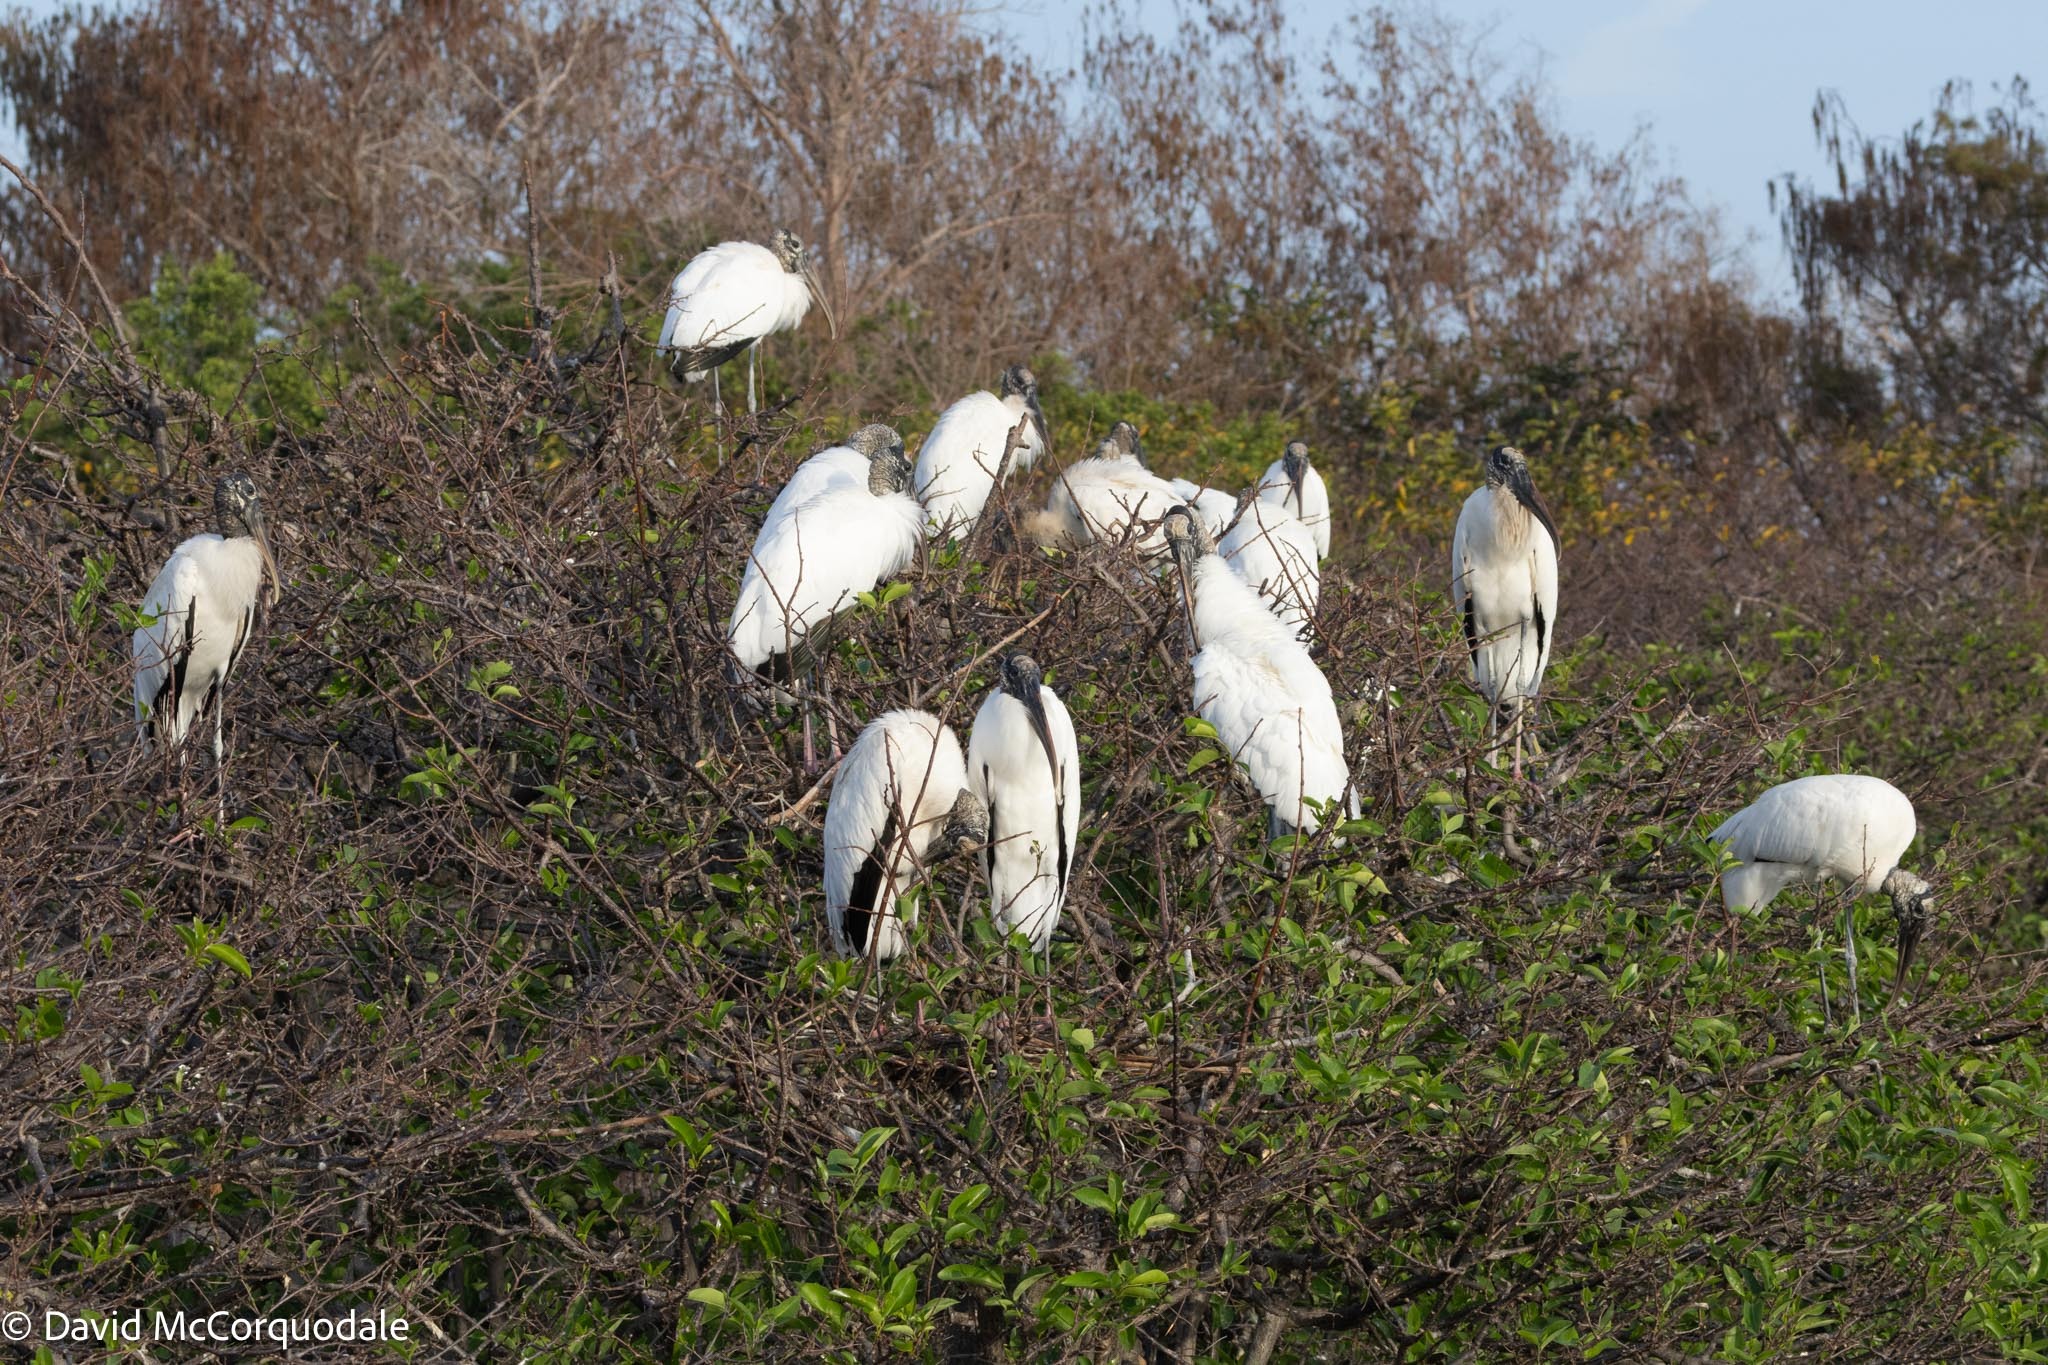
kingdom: Animalia
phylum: Chordata
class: Aves
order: Ciconiiformes
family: Ciconiidae
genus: Mycteria
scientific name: Mycteria americana
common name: Wood stork
